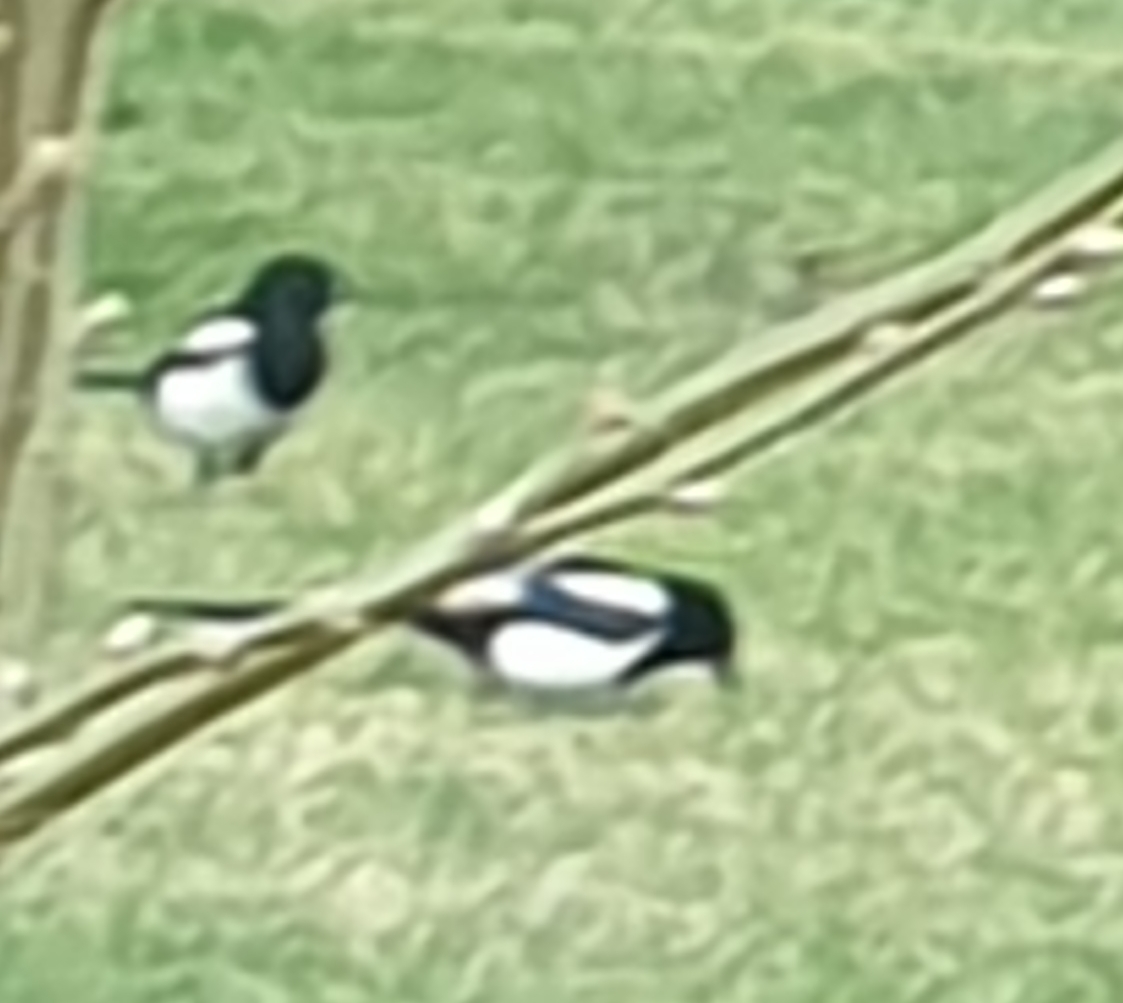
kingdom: Animalia
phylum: Chordata
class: Aves
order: Passeriformes
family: Corvidae
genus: Pica
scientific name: Pica pica
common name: Eurasian magpie
